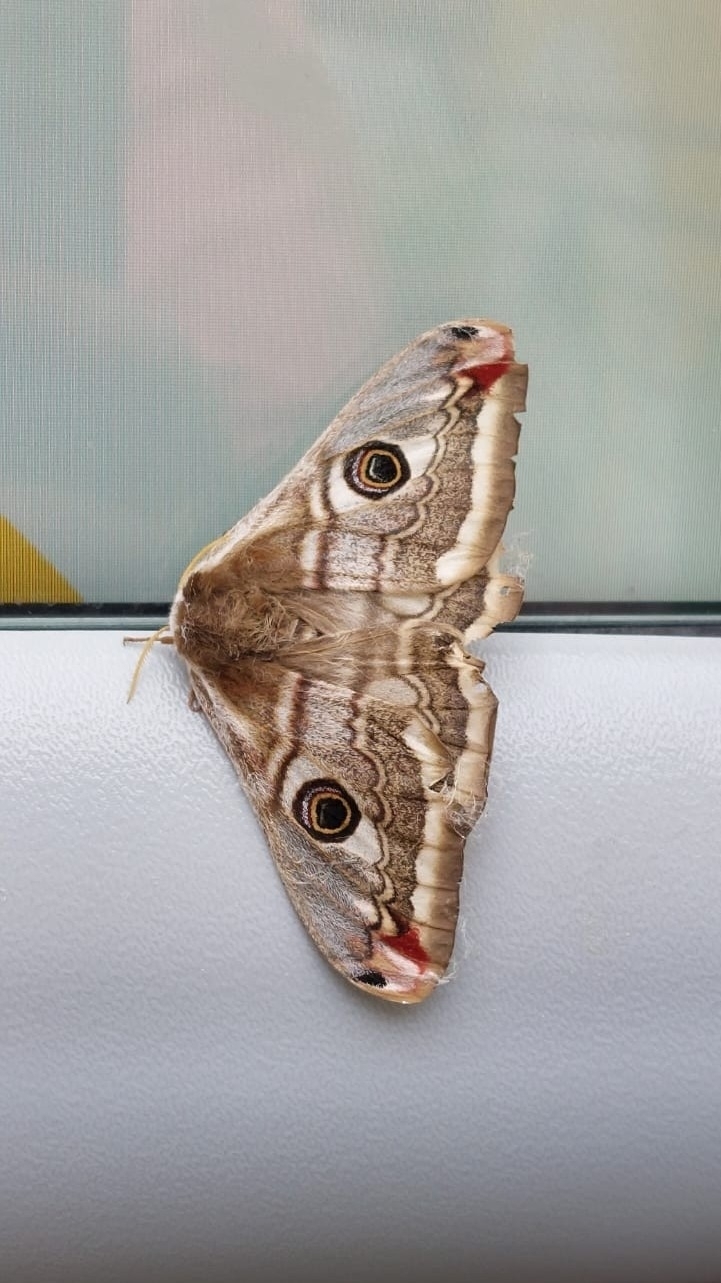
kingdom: Animalia
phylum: Arthropoda
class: Insecta
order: Lepidoptera
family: Saturniidae
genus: Saturnia
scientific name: Saturnia pavonia
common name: Emperor moth
